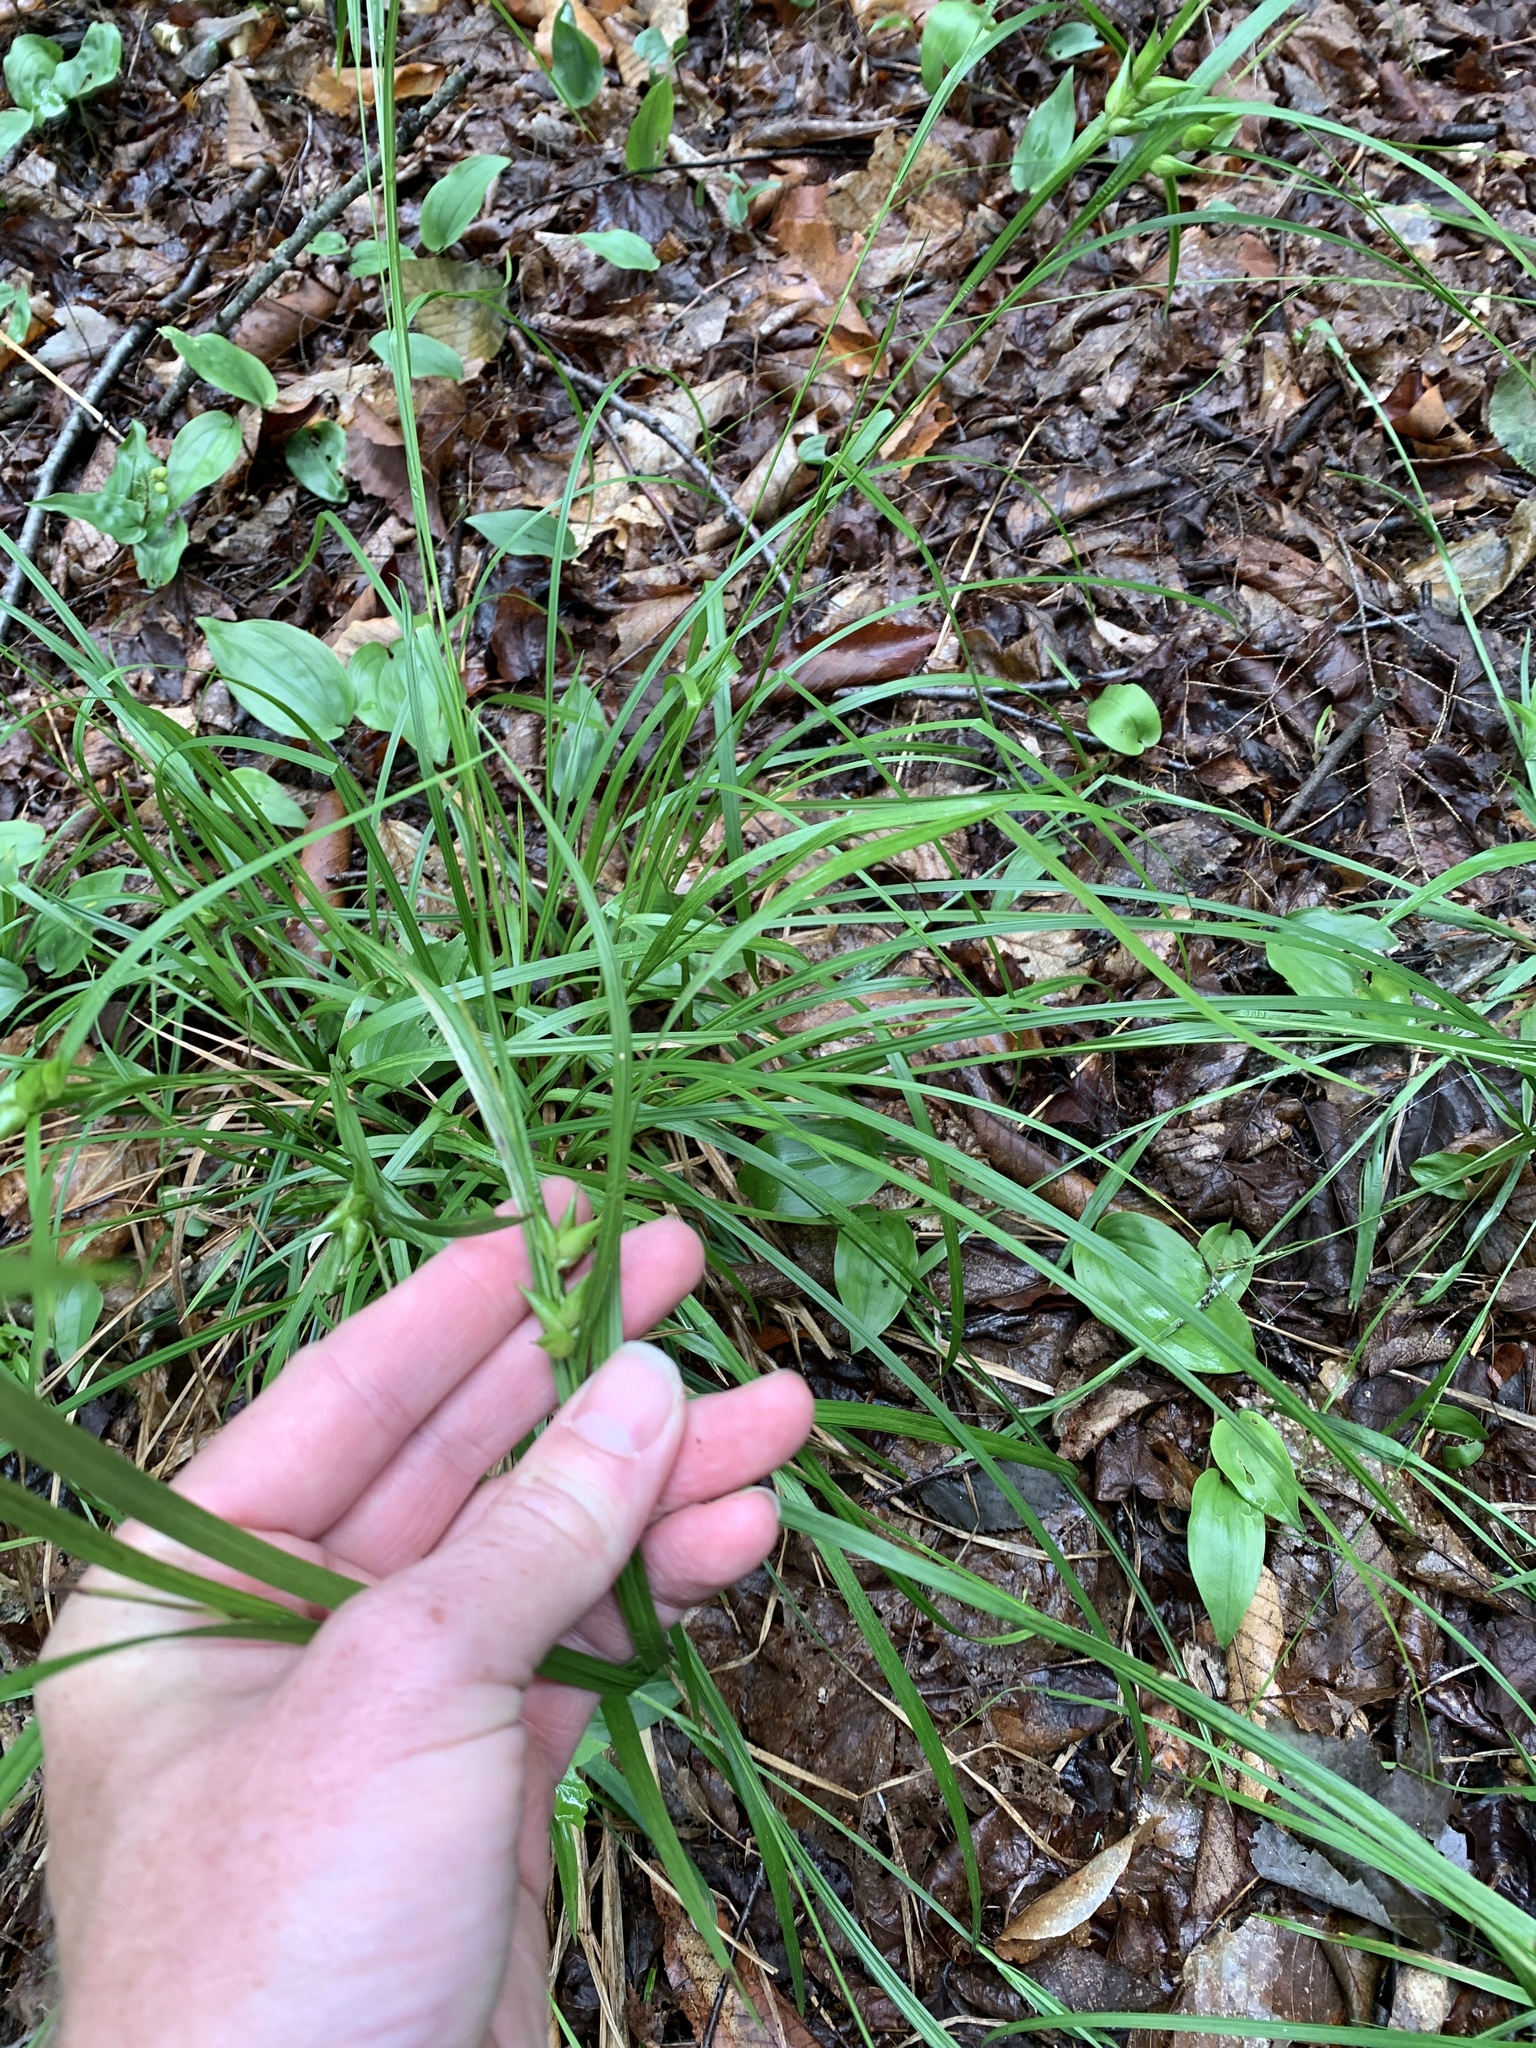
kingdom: Plantae
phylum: Tracheophyta
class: Liliopsida
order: Poales
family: Cyperaceae
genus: Carex
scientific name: Carex intumescens
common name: Greater bladder sedge
